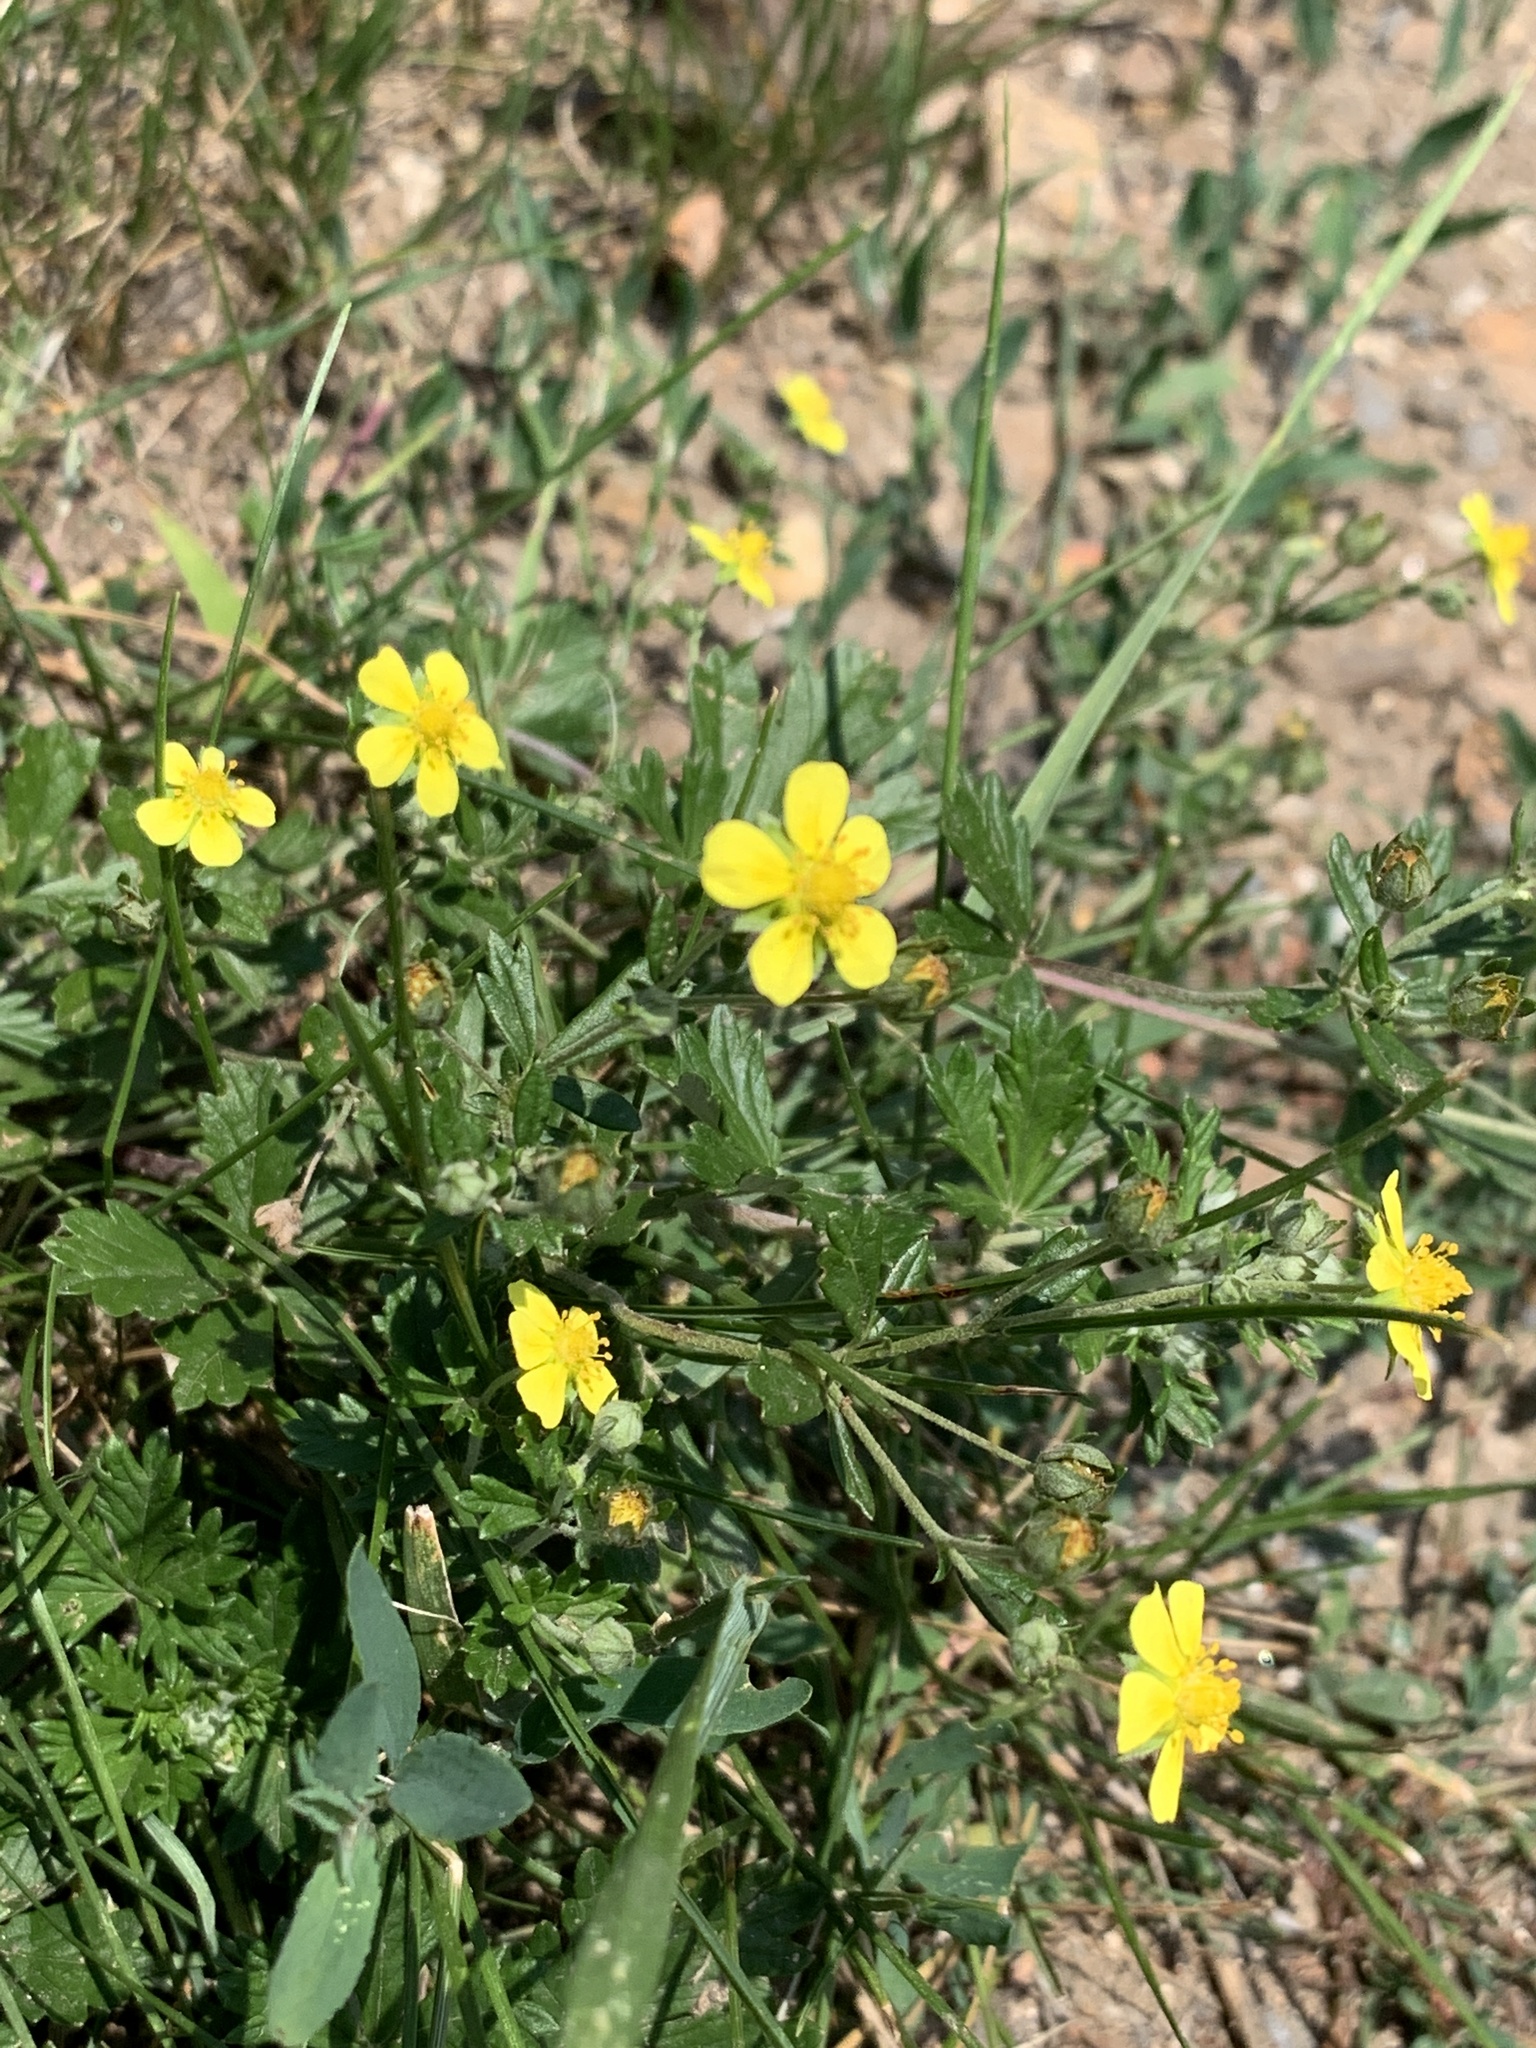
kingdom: Plantae
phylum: Tracheophyta
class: Magnoliopsida
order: Rosales
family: Rosaceae
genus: Potentilla
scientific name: Potentilla argentea
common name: Hoary cinquefoil
